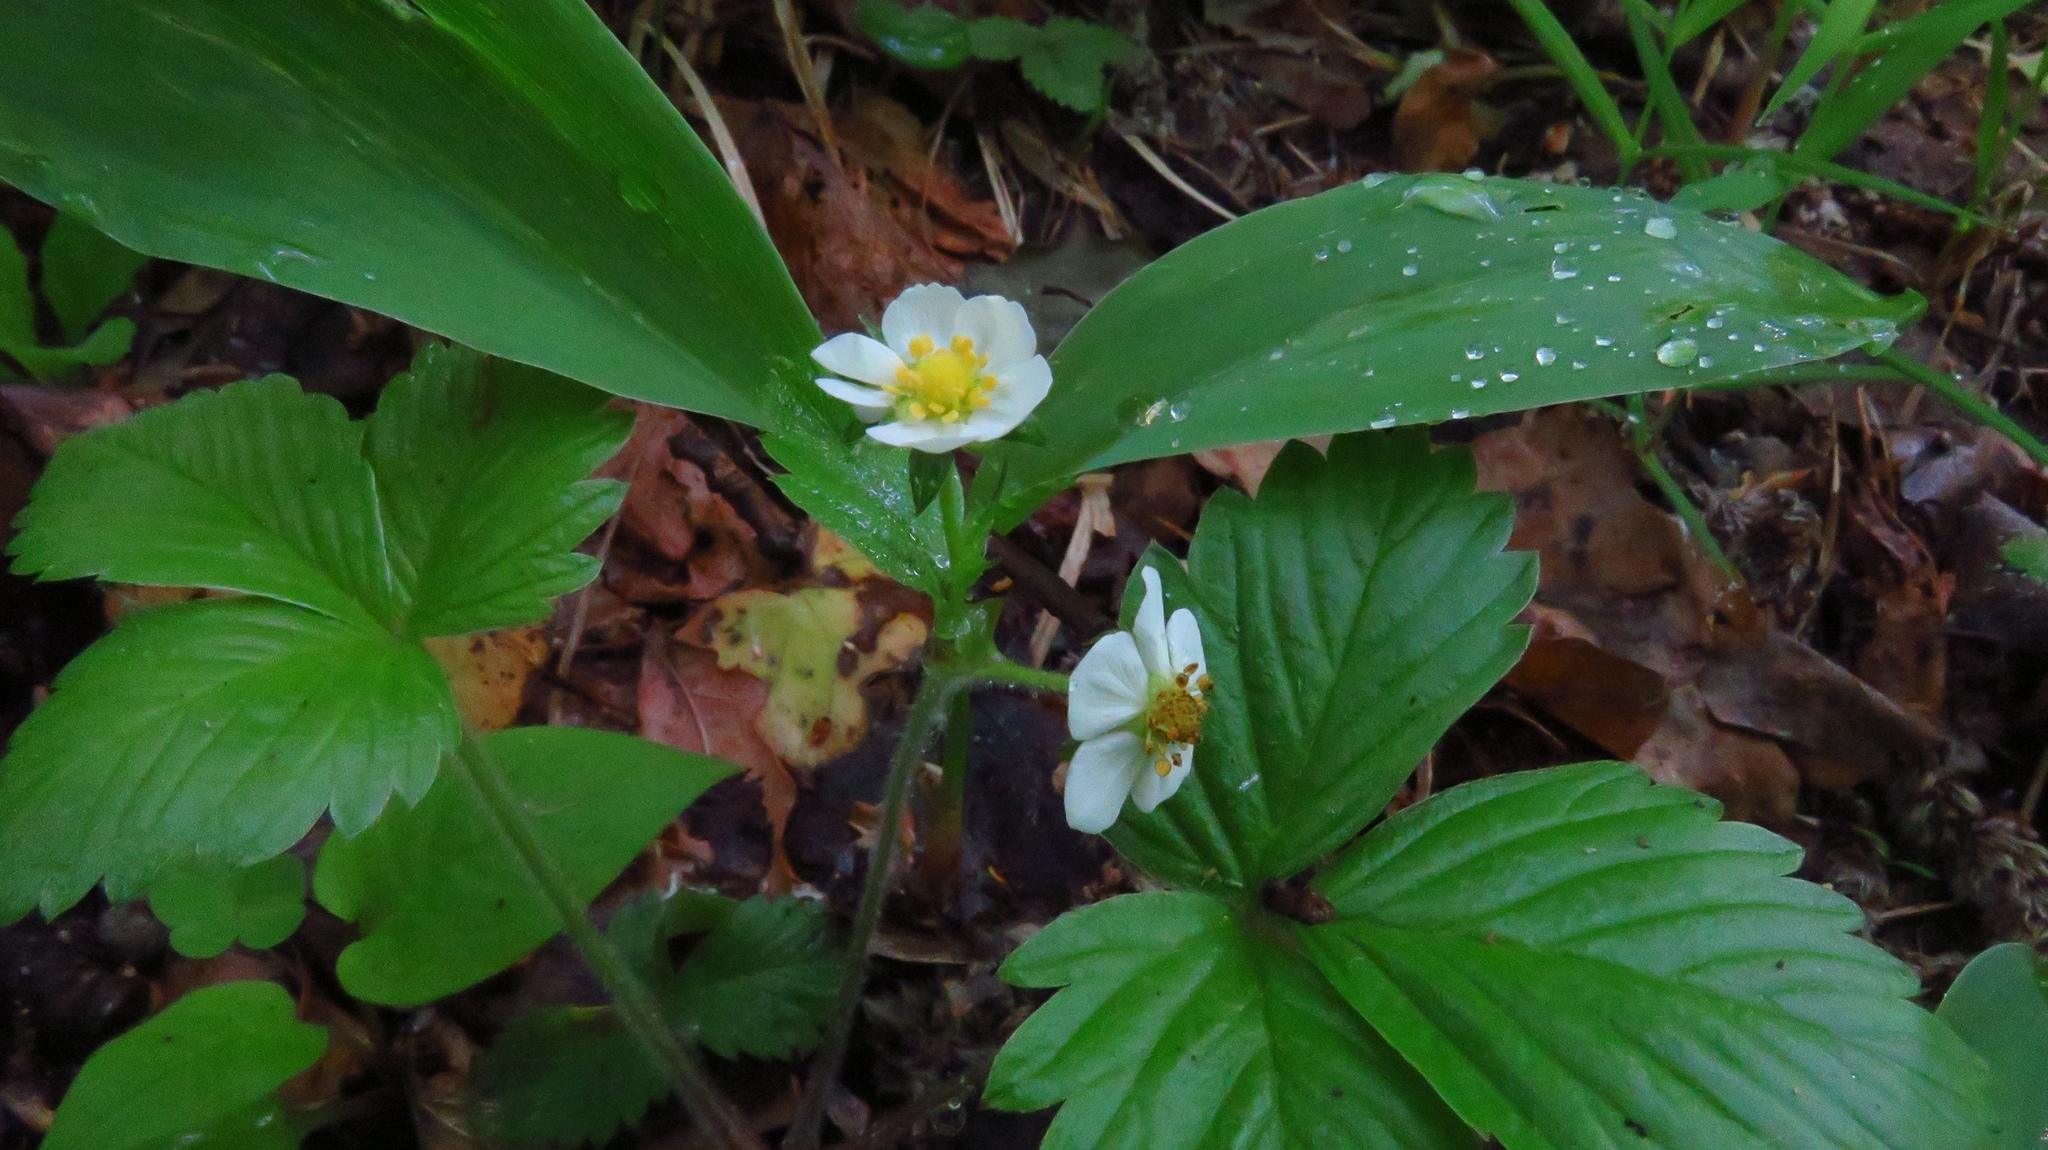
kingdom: Plantae
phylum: Tracheophyta
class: Magnoliopsida
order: Rosales
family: Rosaceae
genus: Fragaria
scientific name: Fragaria vesca
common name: Wild strawberry
